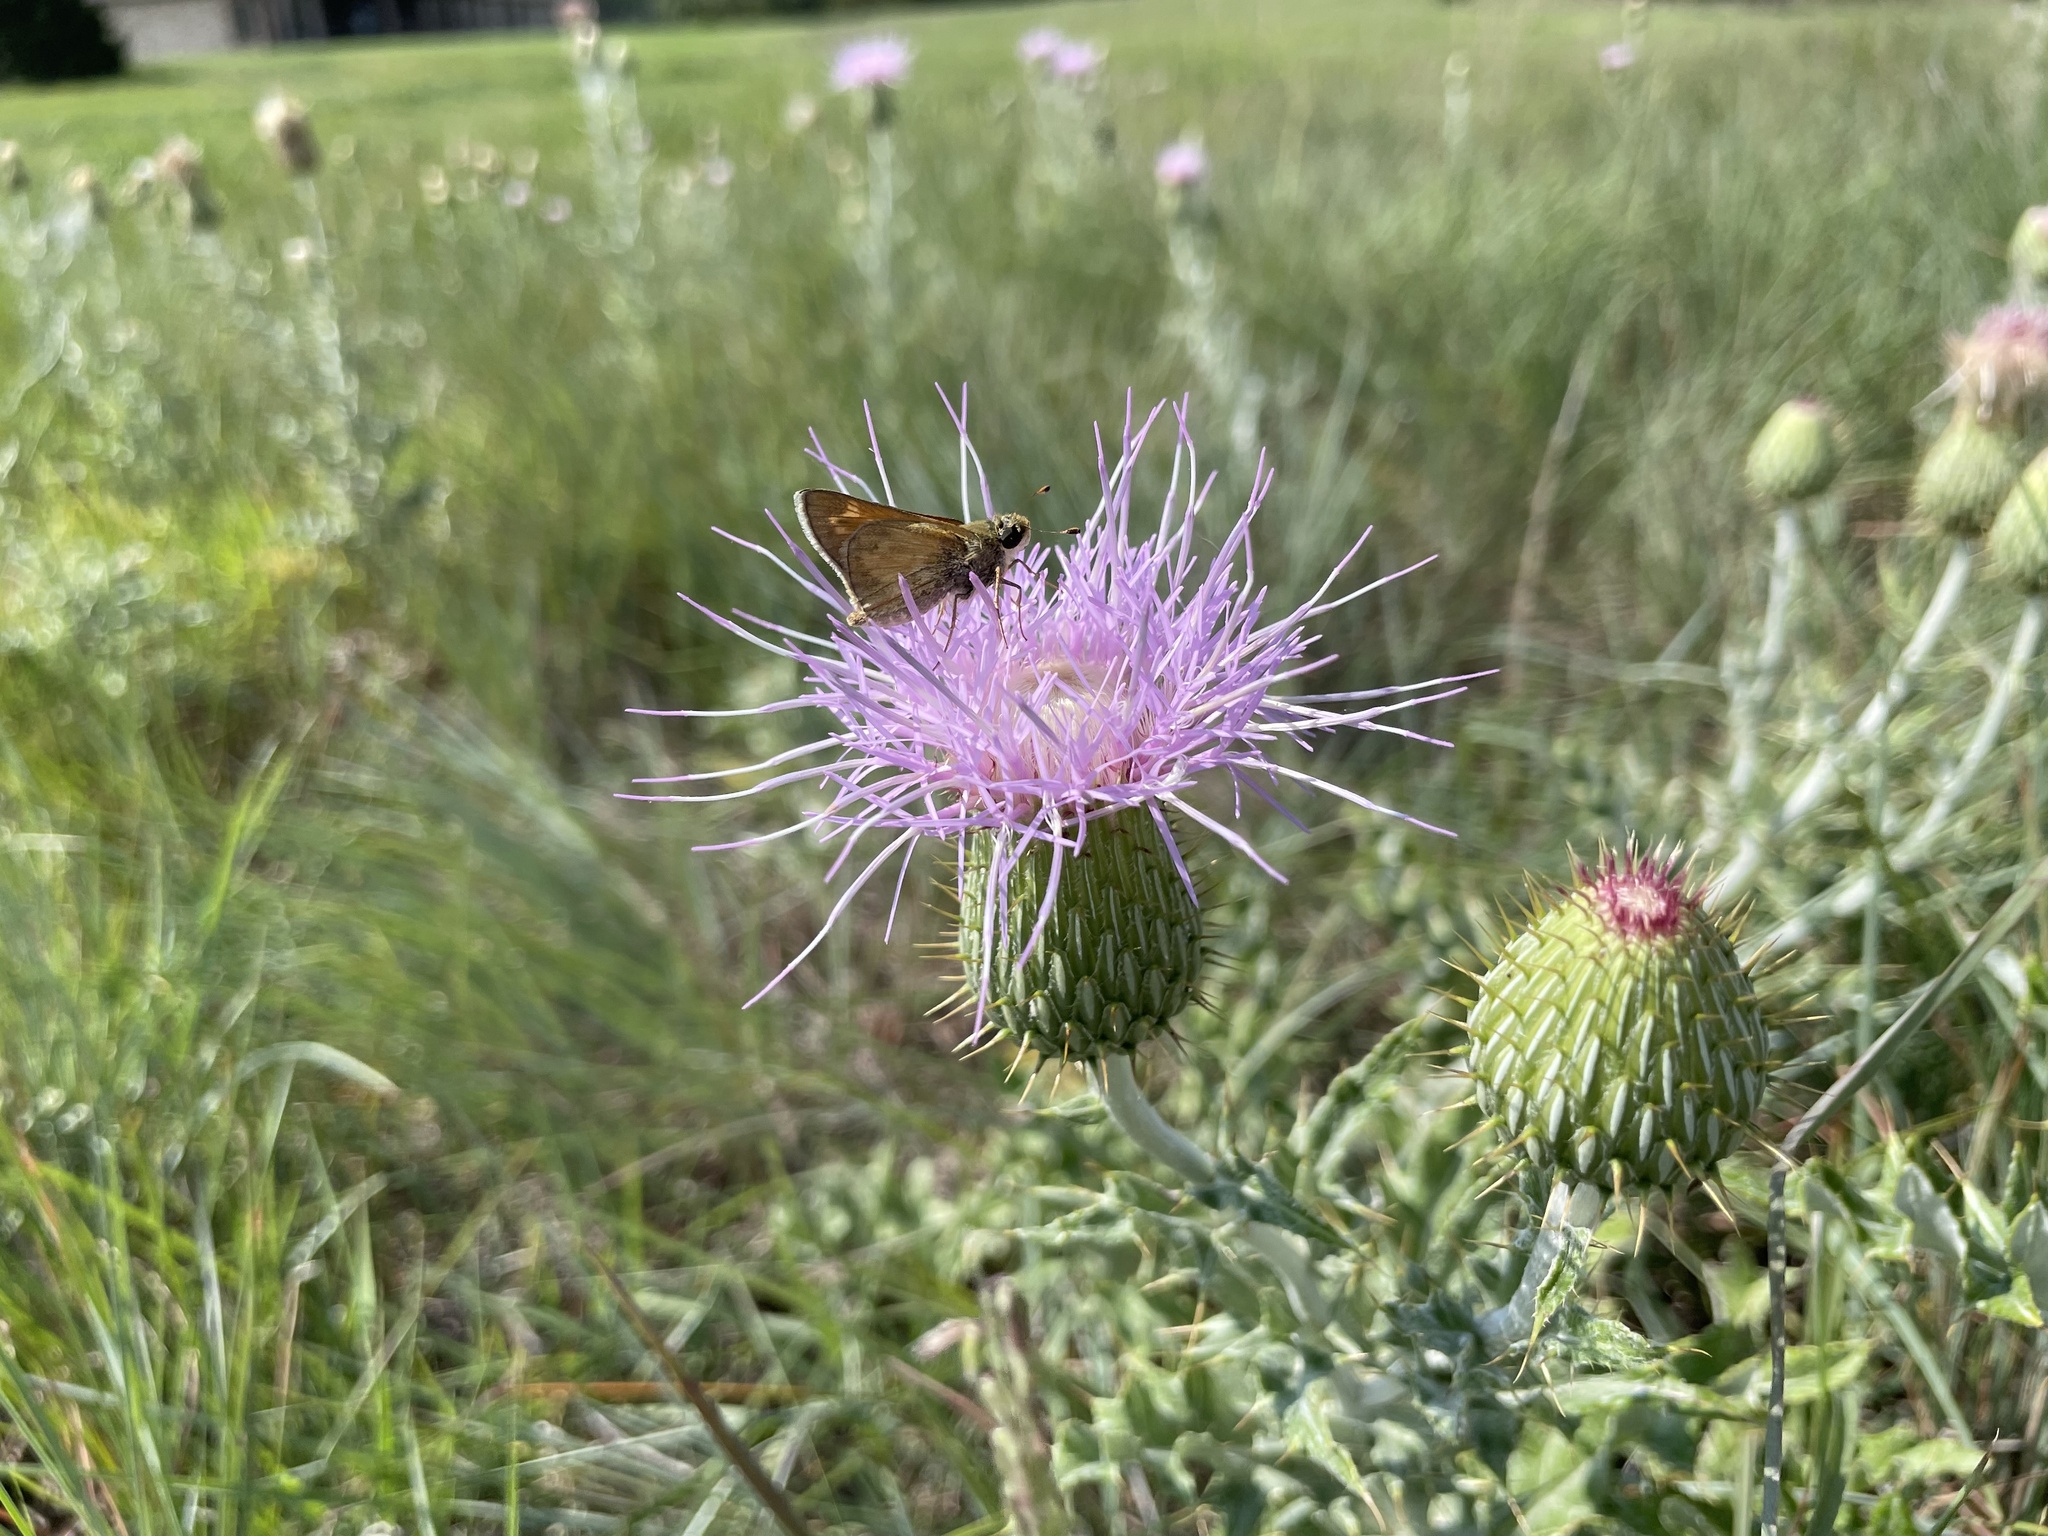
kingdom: Animalia
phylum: Arthropoda
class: Insecta
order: Lepidoptera
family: Hesperiidae
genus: Atalopedes
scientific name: Atalopedes
